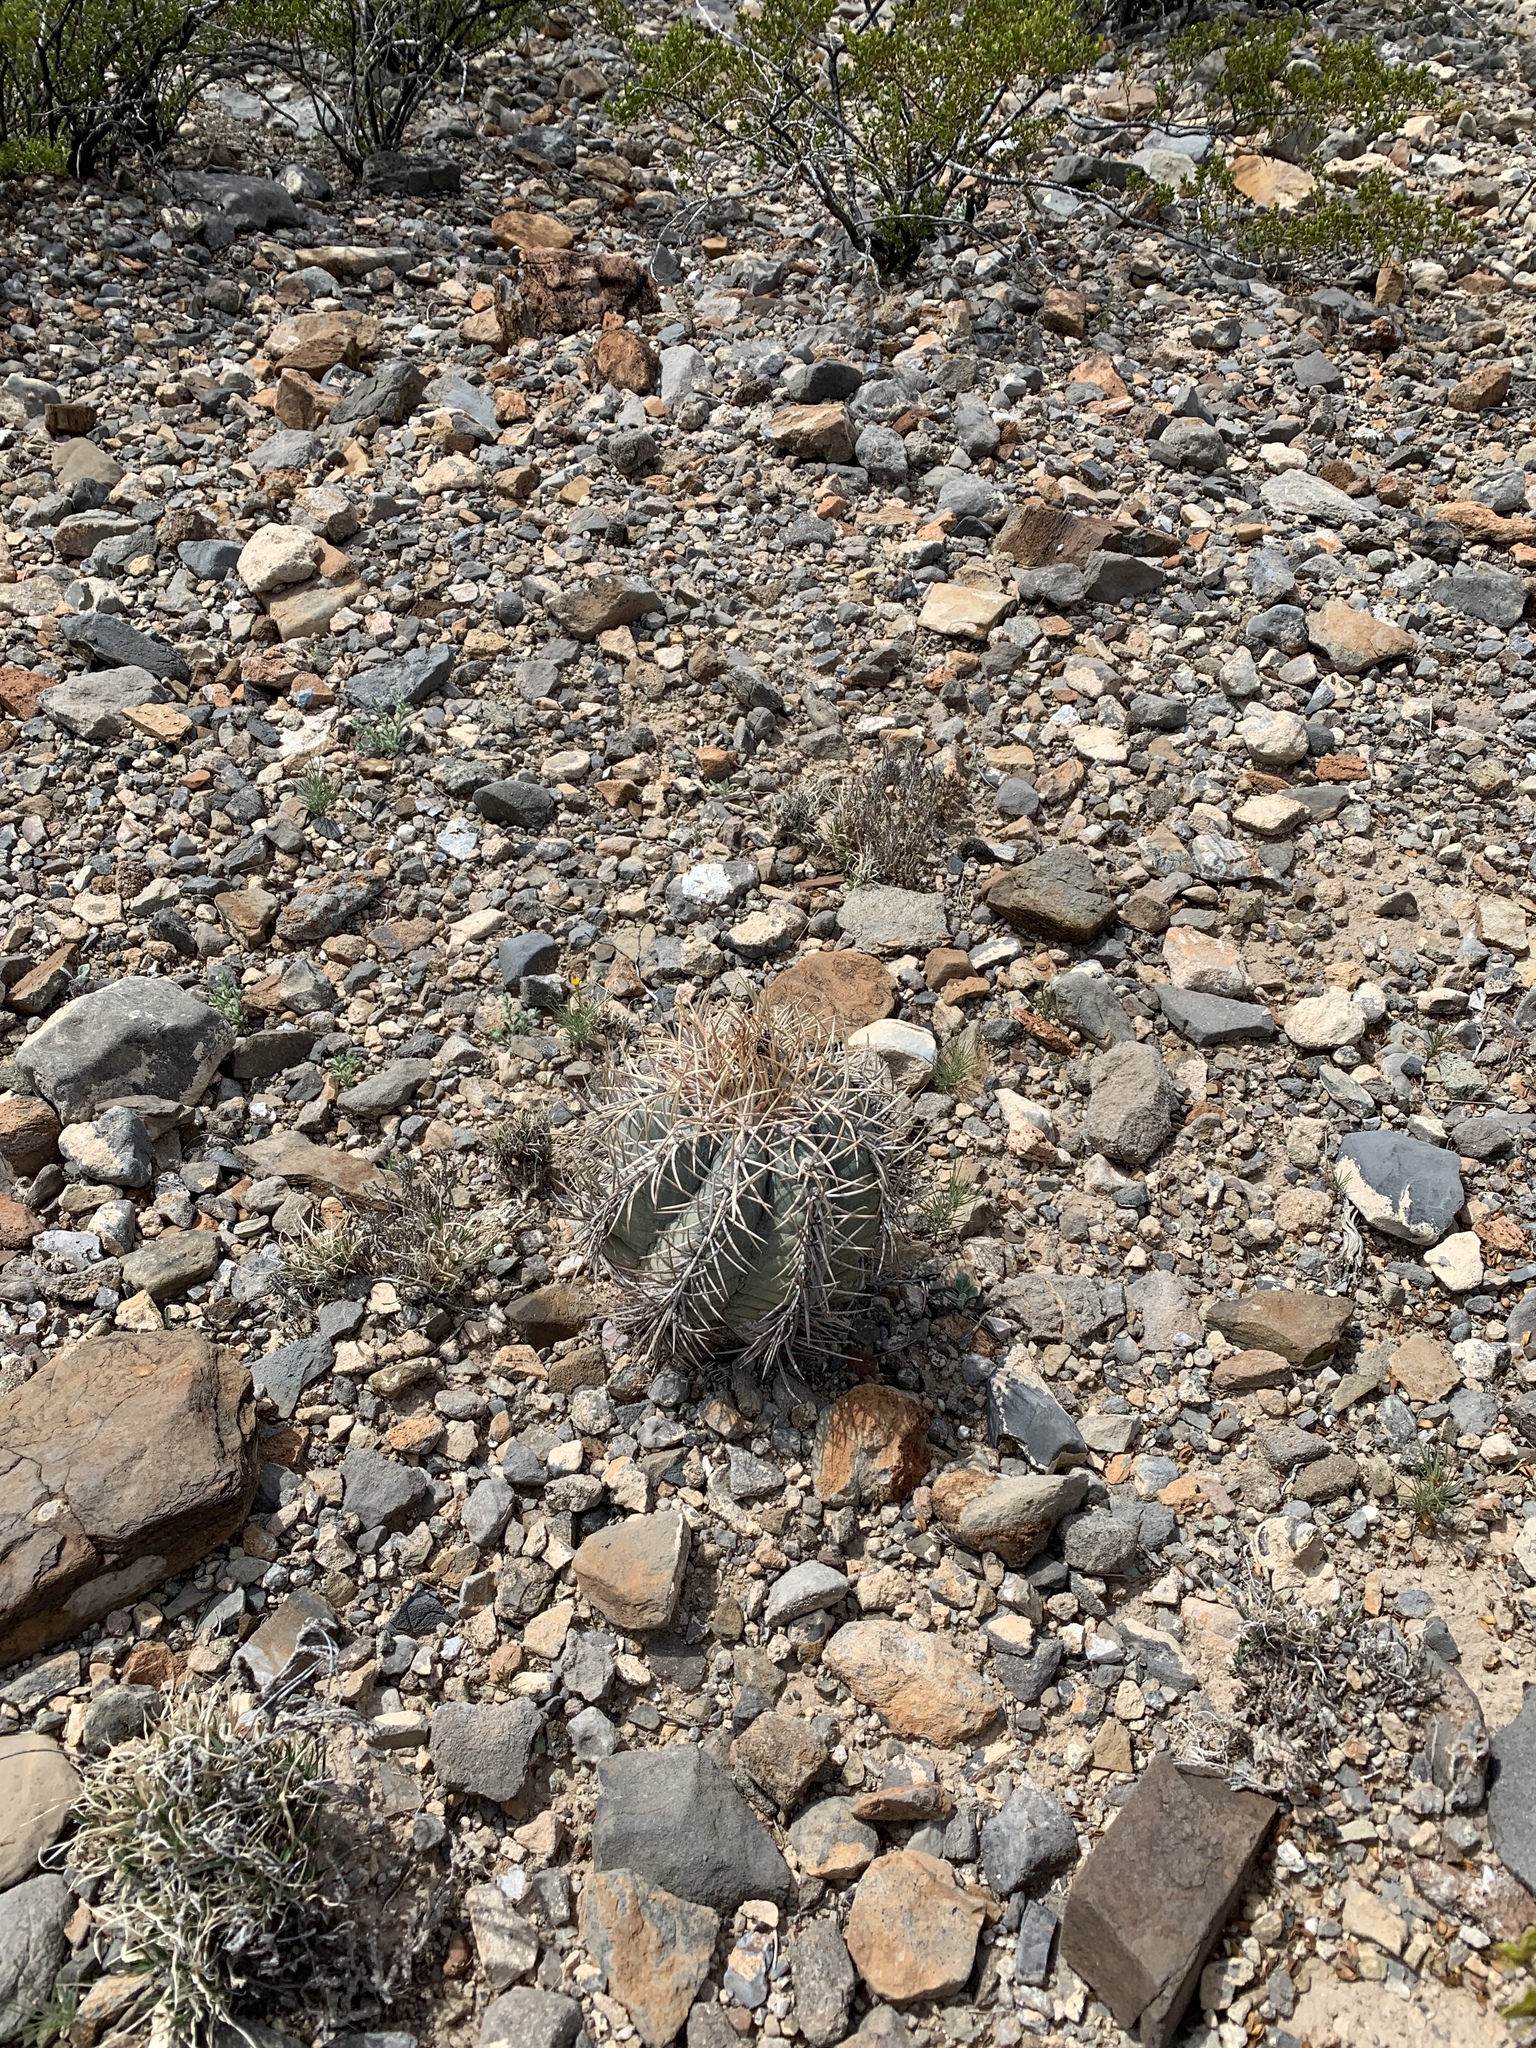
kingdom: Plantae
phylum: Tracheophyta
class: Magnoliopsida
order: Caryophyllales
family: Cactaceae
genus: Echinocactus
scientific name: Echinocactus horizonthalonius
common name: Devilshead
